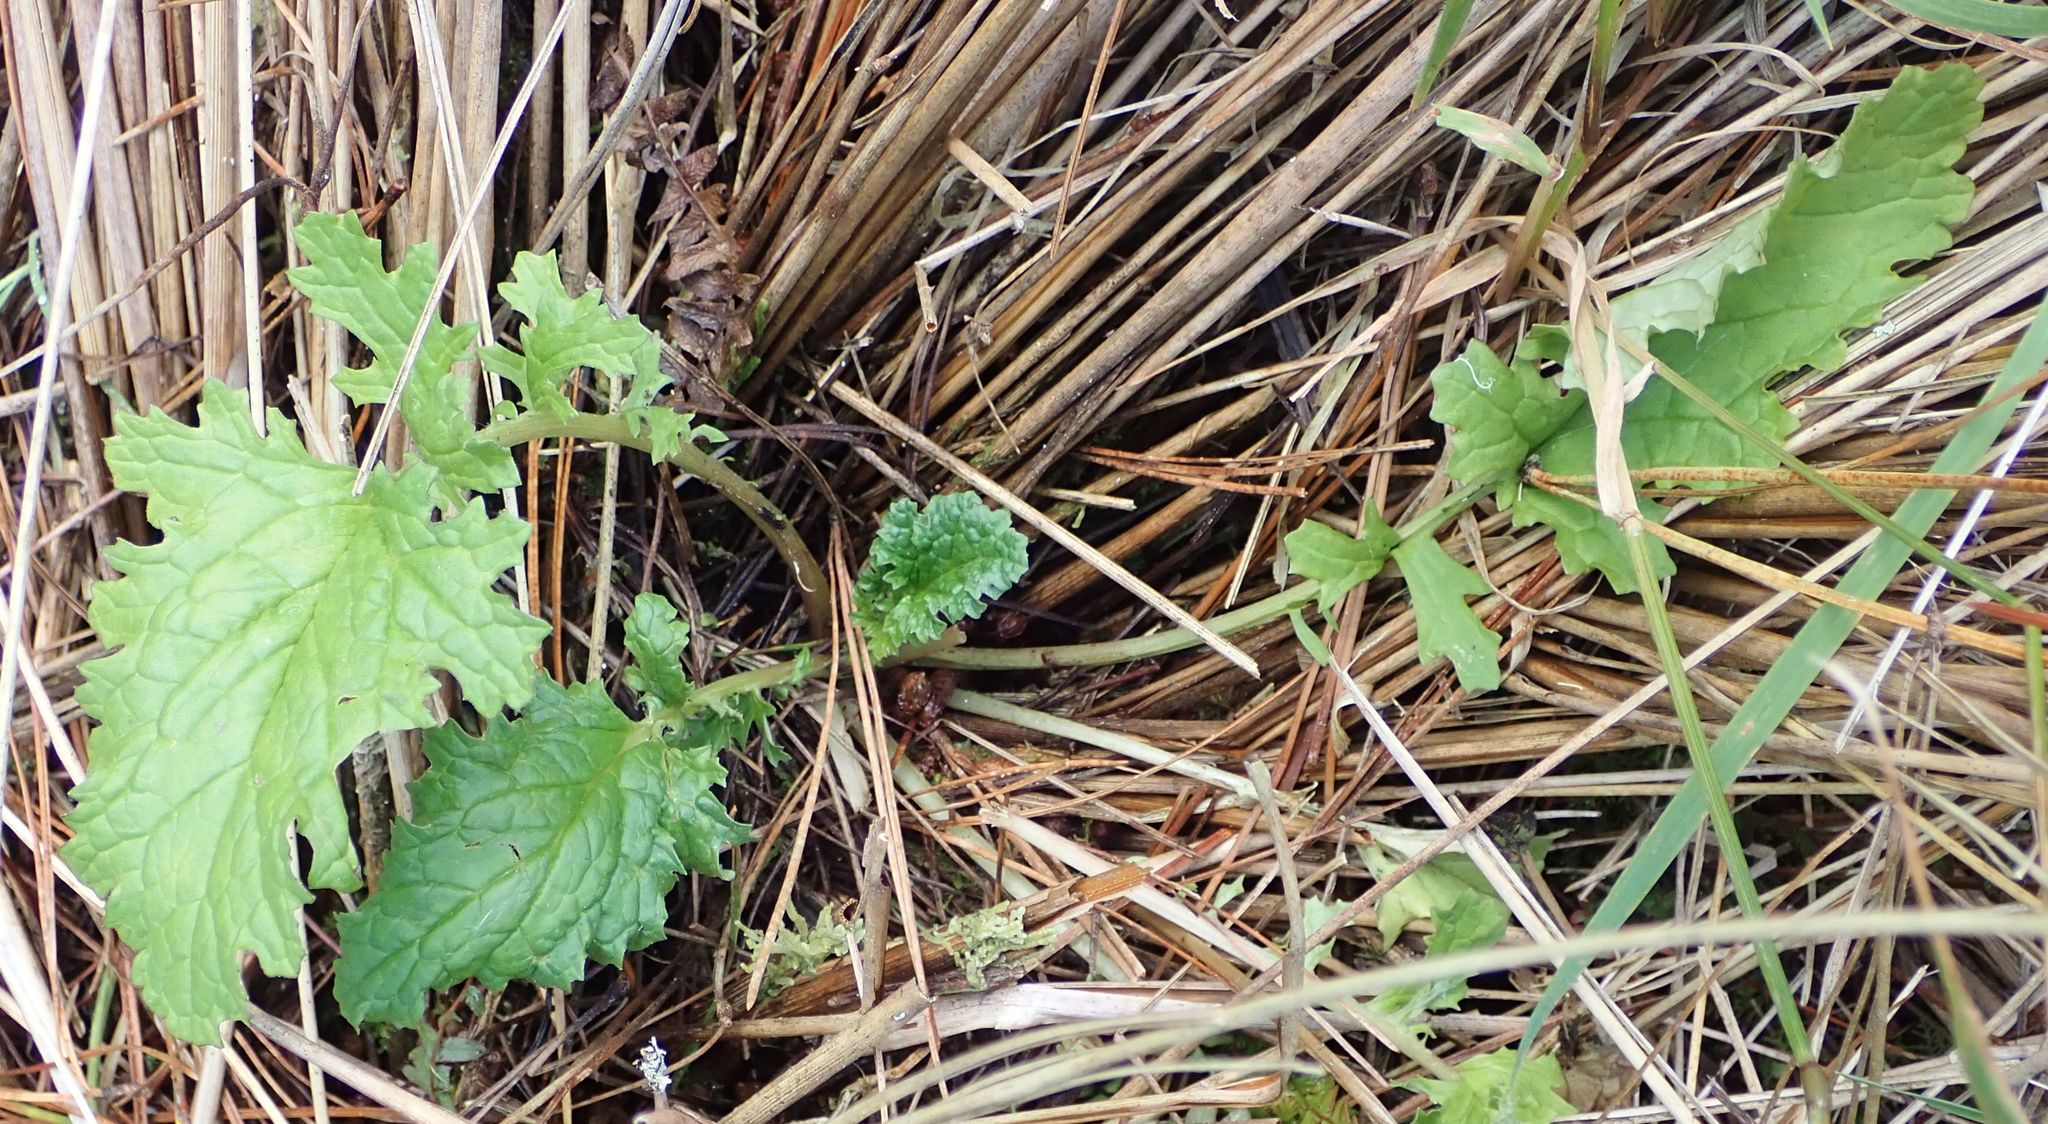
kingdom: Plantae
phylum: Tracheophyta
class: Magnoliopsida
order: Asterales
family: Asteraceae
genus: Jacobaea
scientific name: Jacobaea vulgaris
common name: Stinking willie
